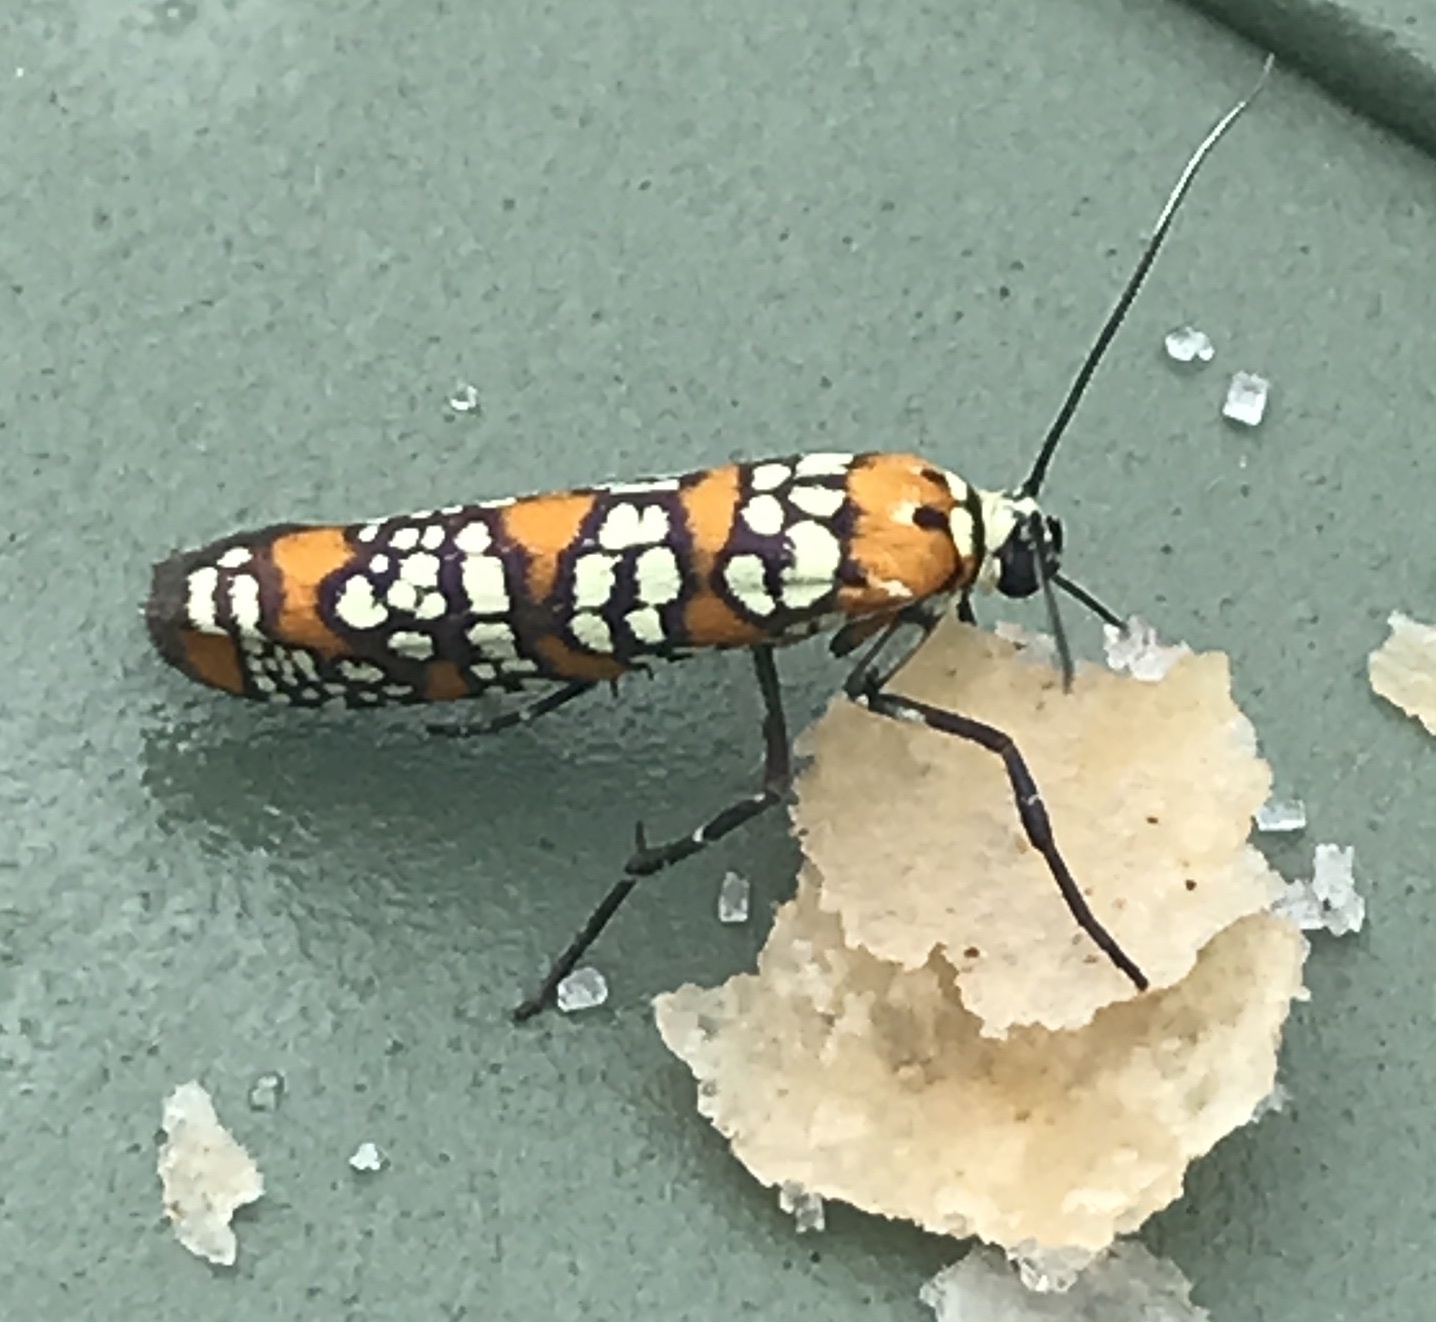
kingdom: Animalia
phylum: Arthropoda
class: Insecta
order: Lepidoptera
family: Attevidae
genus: Atteva
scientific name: Atteva punctella
